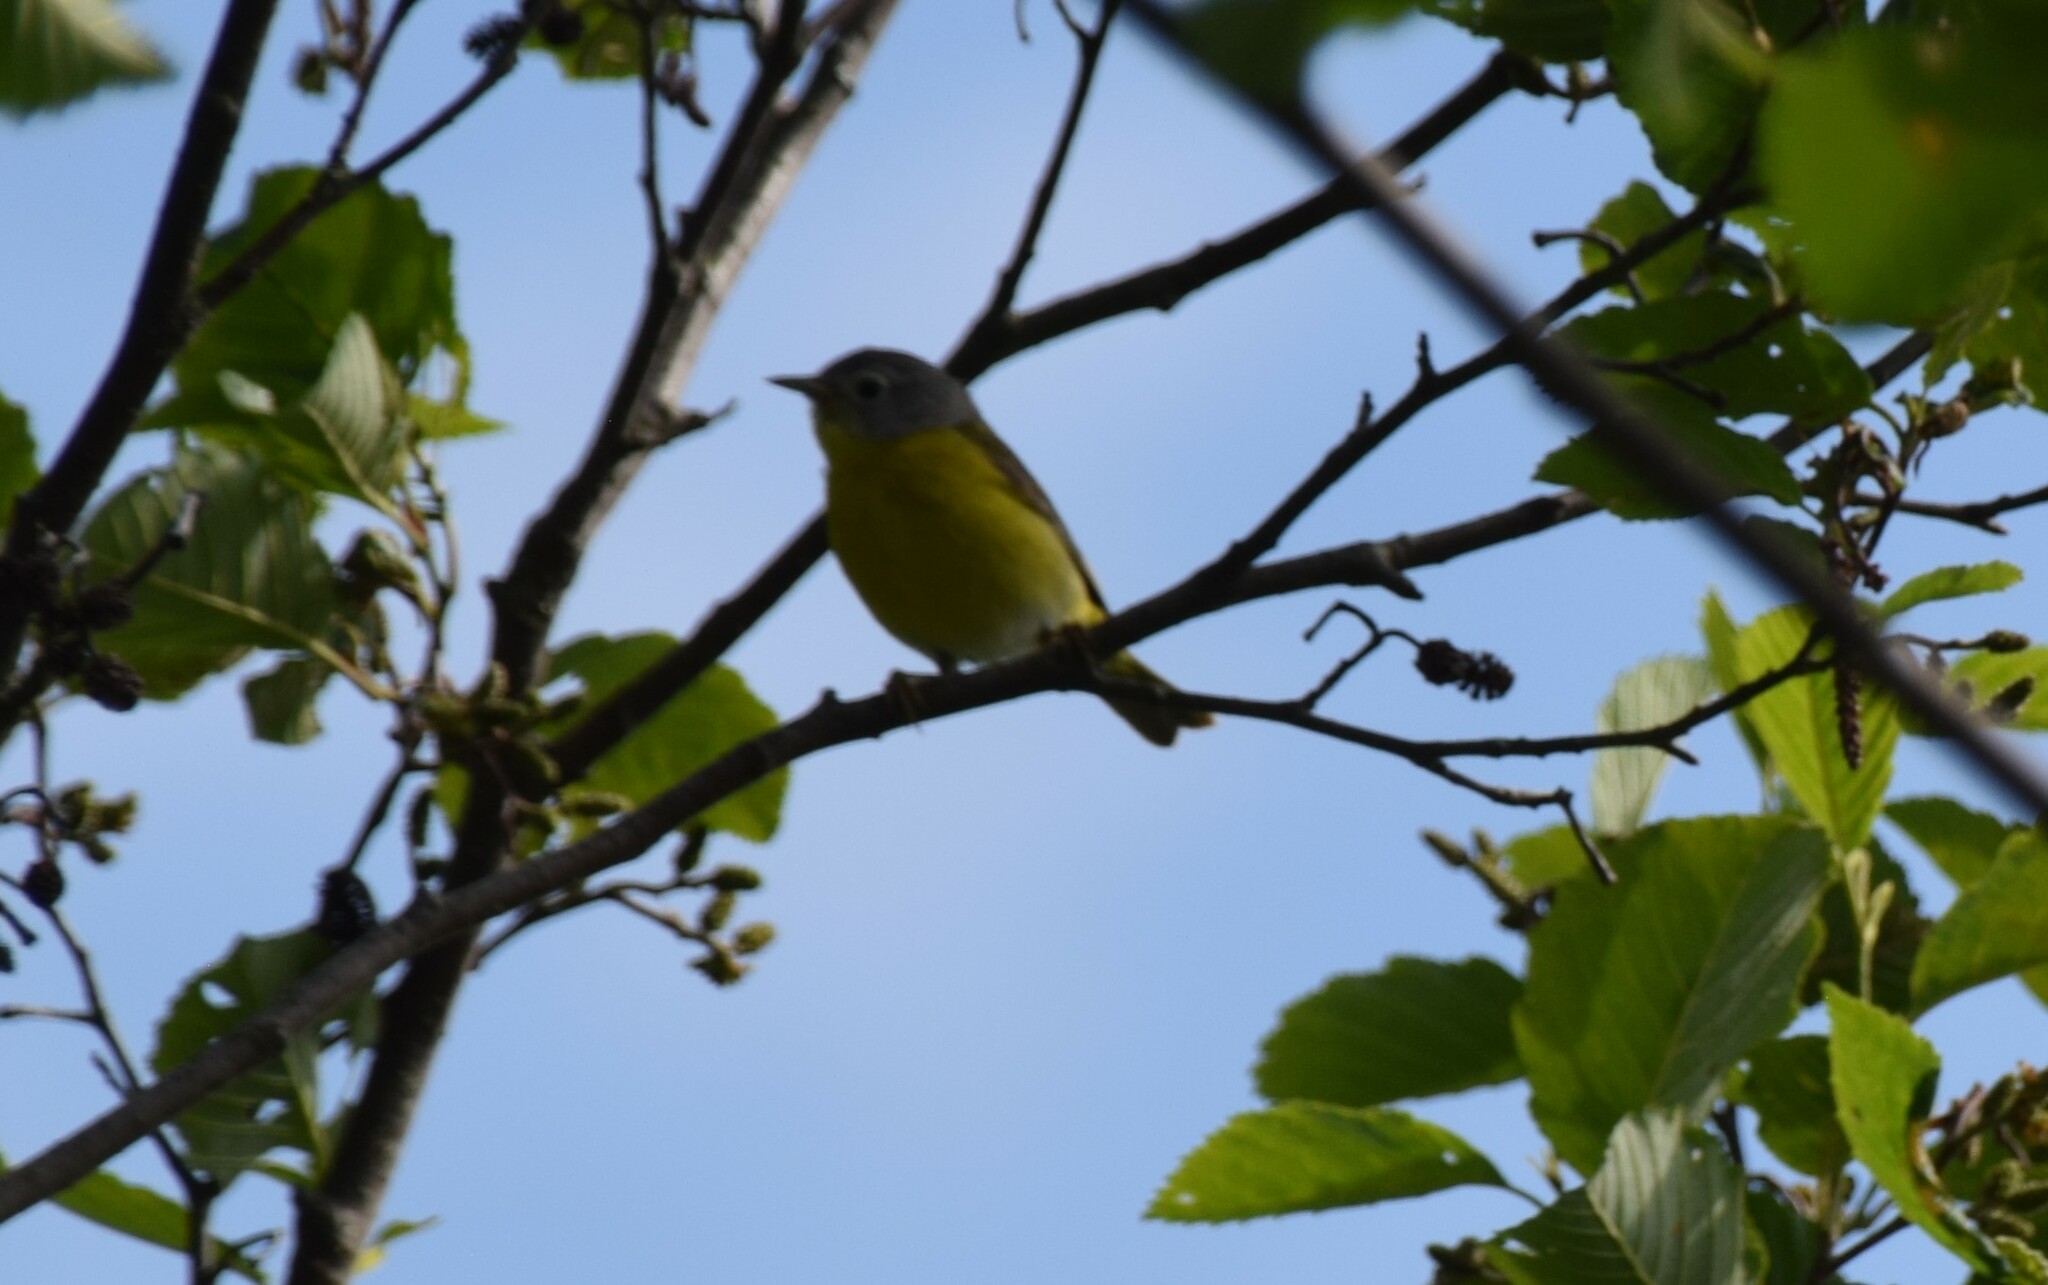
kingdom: Animalia
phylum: Chordata
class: Aves
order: Passeriformes
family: Parulidae
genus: Leiothlypis
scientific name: Leiothlypis ruficapilla
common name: Nashville warbler
